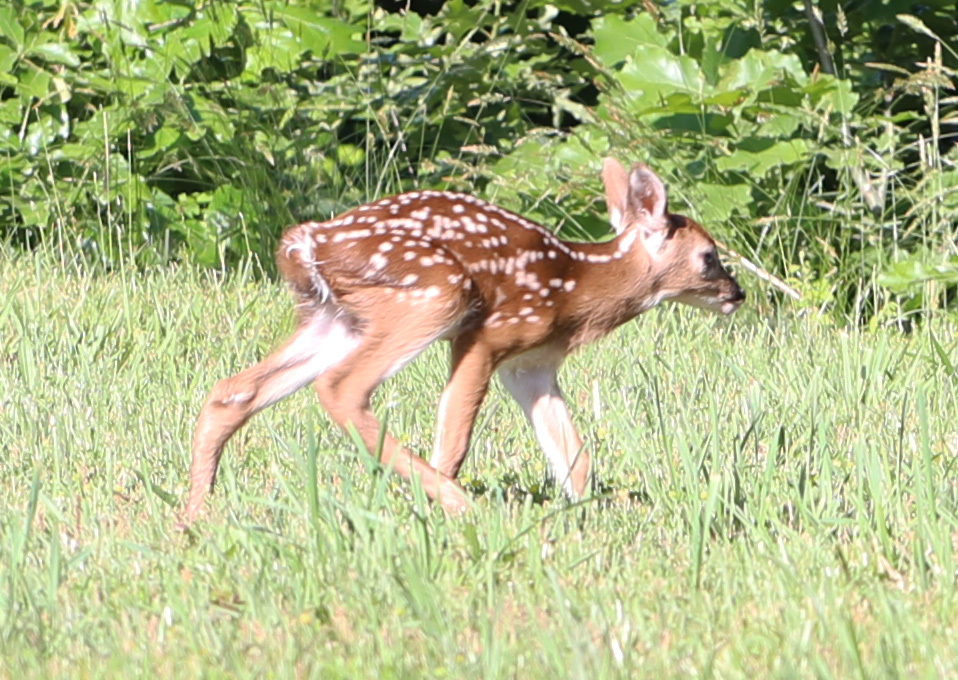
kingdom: Animalia
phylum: Chordata
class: Mammalia
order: Artiodactyla
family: Cervidae
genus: Odocoileus
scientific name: Odocoileus virginianus
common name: White-tailed deer
